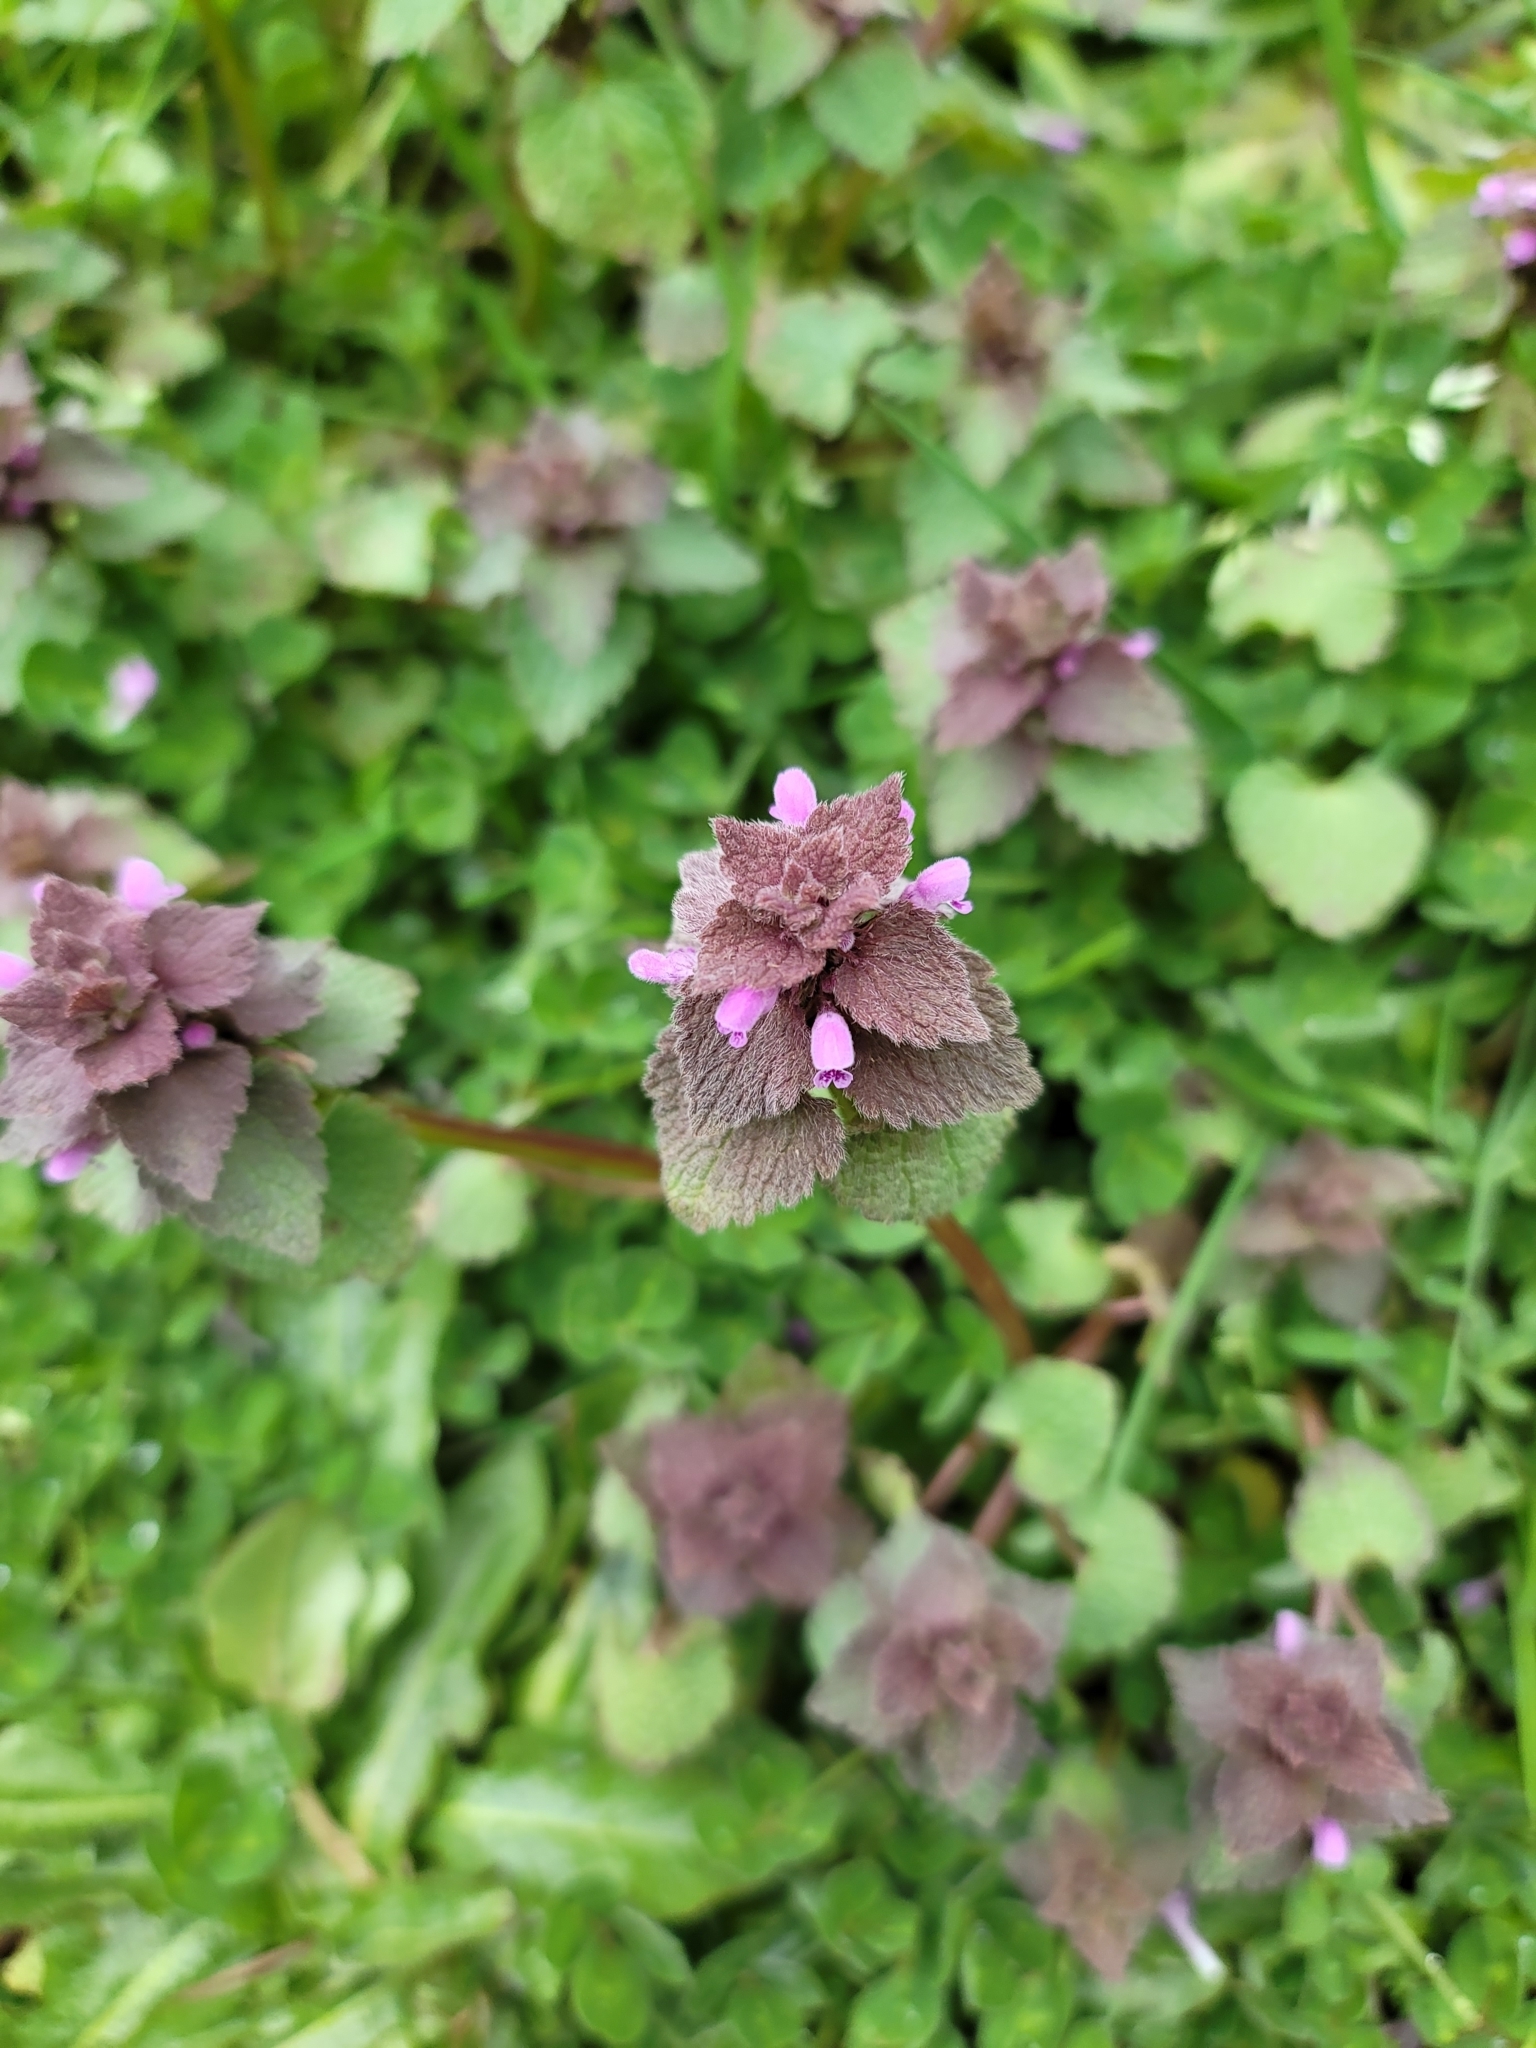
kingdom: Plantae
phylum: Tracheophyta
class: Magnoliopsida
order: Lamiales
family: Lamiaceae
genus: Lamium
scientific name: Lamium purpureum
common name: Red dead-nettle
